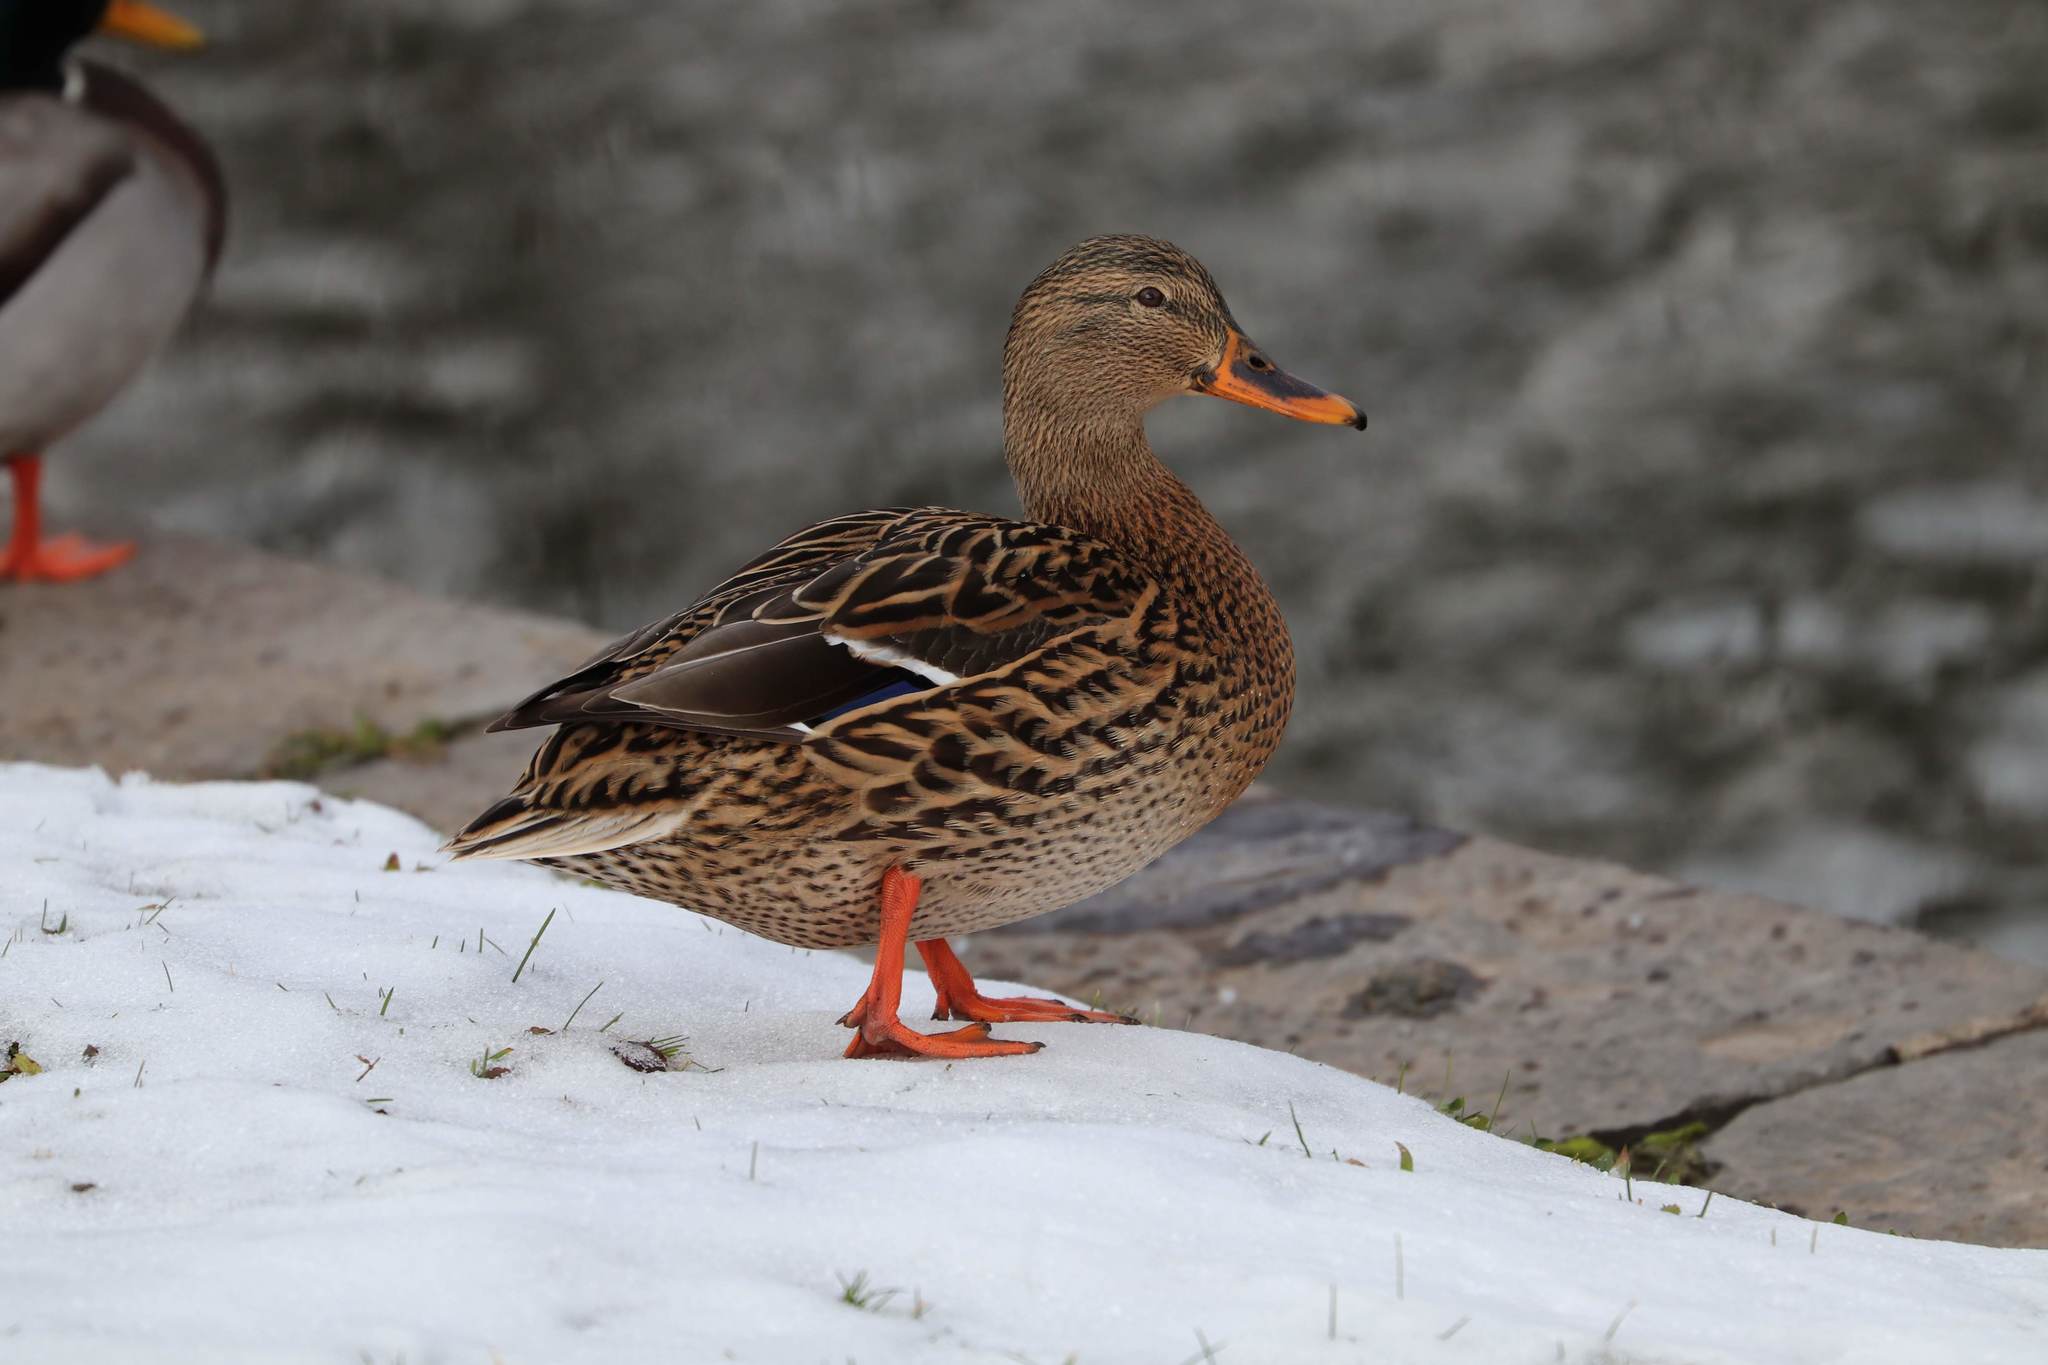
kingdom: Animalia
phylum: Chordata
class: Aves
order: Anseriformes
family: Anatidae
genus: Anas
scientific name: Anas platyrhynchos
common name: Mallard
